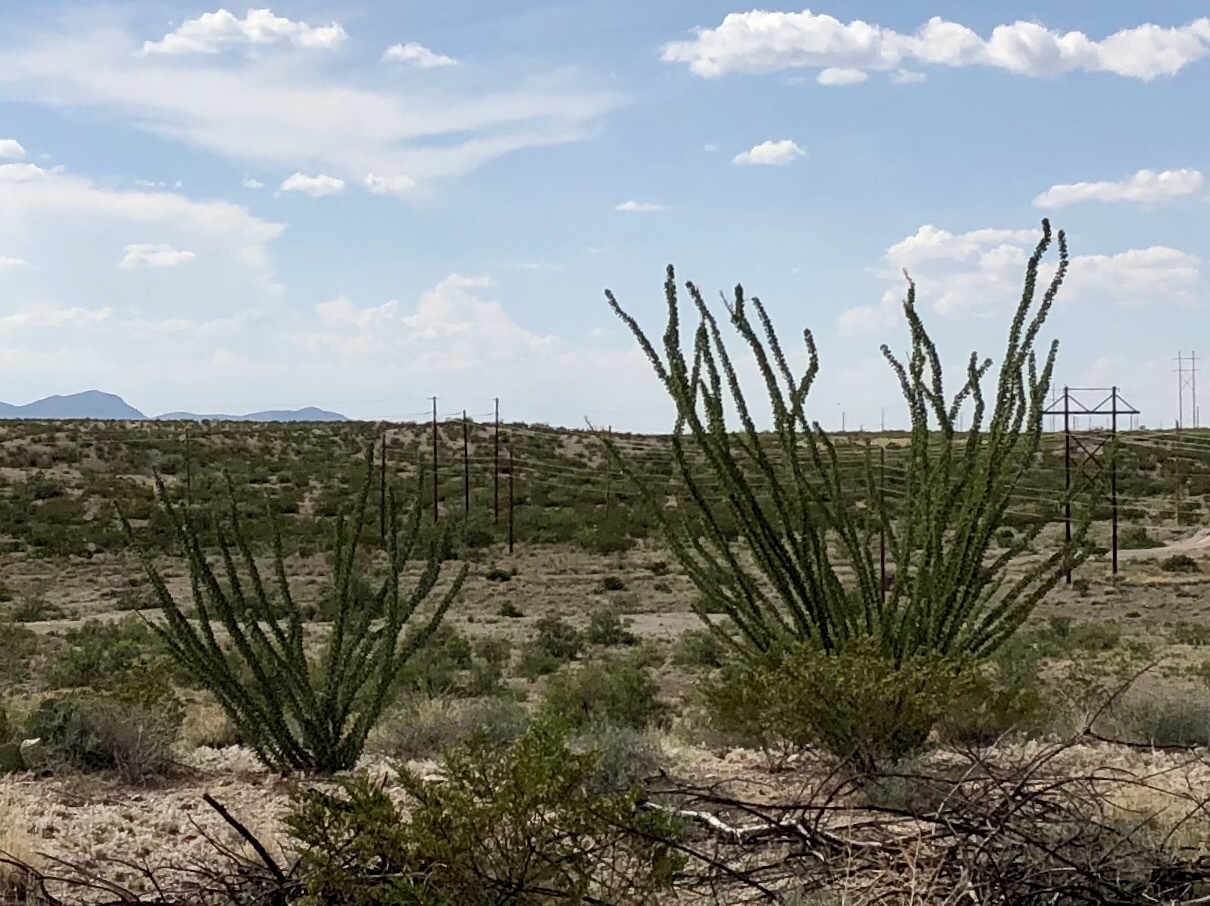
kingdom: Plantae
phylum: Tracheophyta
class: Magnoliopsida
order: Ericales
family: Fouquieriaceae
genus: Fouquieria
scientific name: Fouquieria splendens
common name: Vine-cactus
